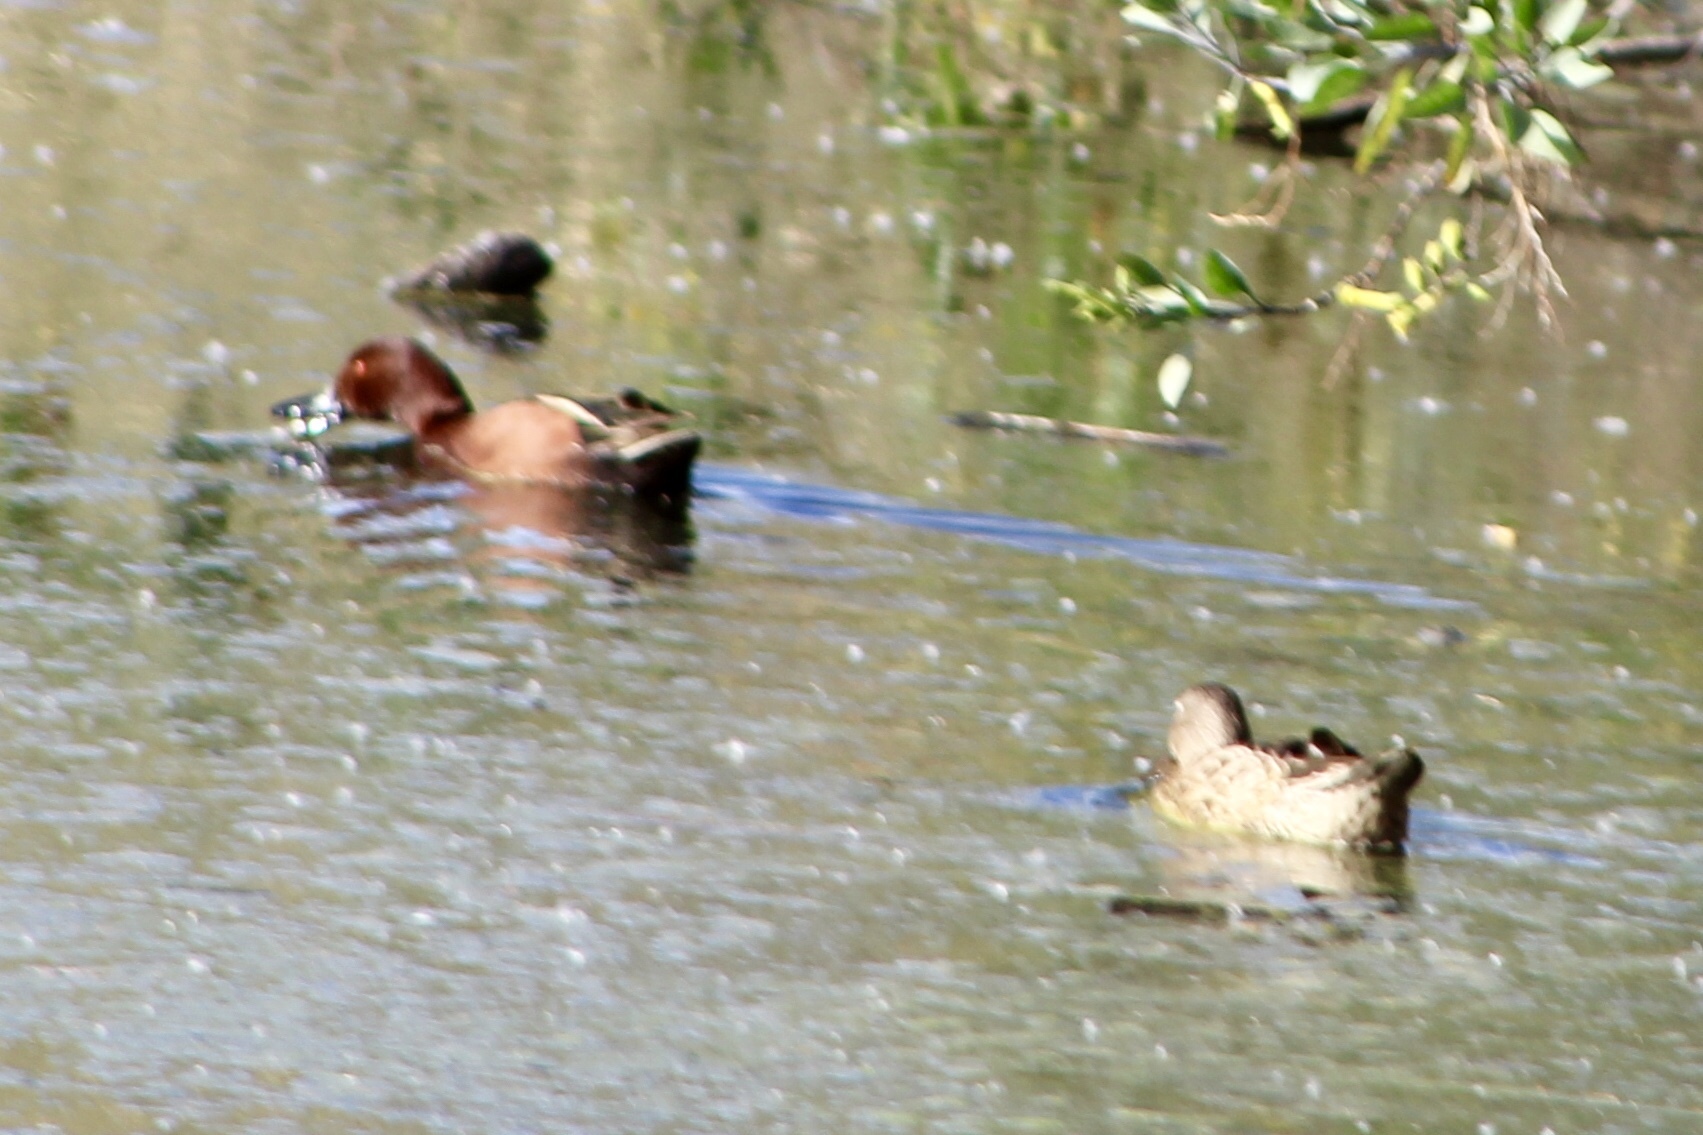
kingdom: Animalia
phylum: Chordata
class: Aves
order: Anseriformes
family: Anatidae
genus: Spatula
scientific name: Spatula cyanoptera
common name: Cinnamon teal
